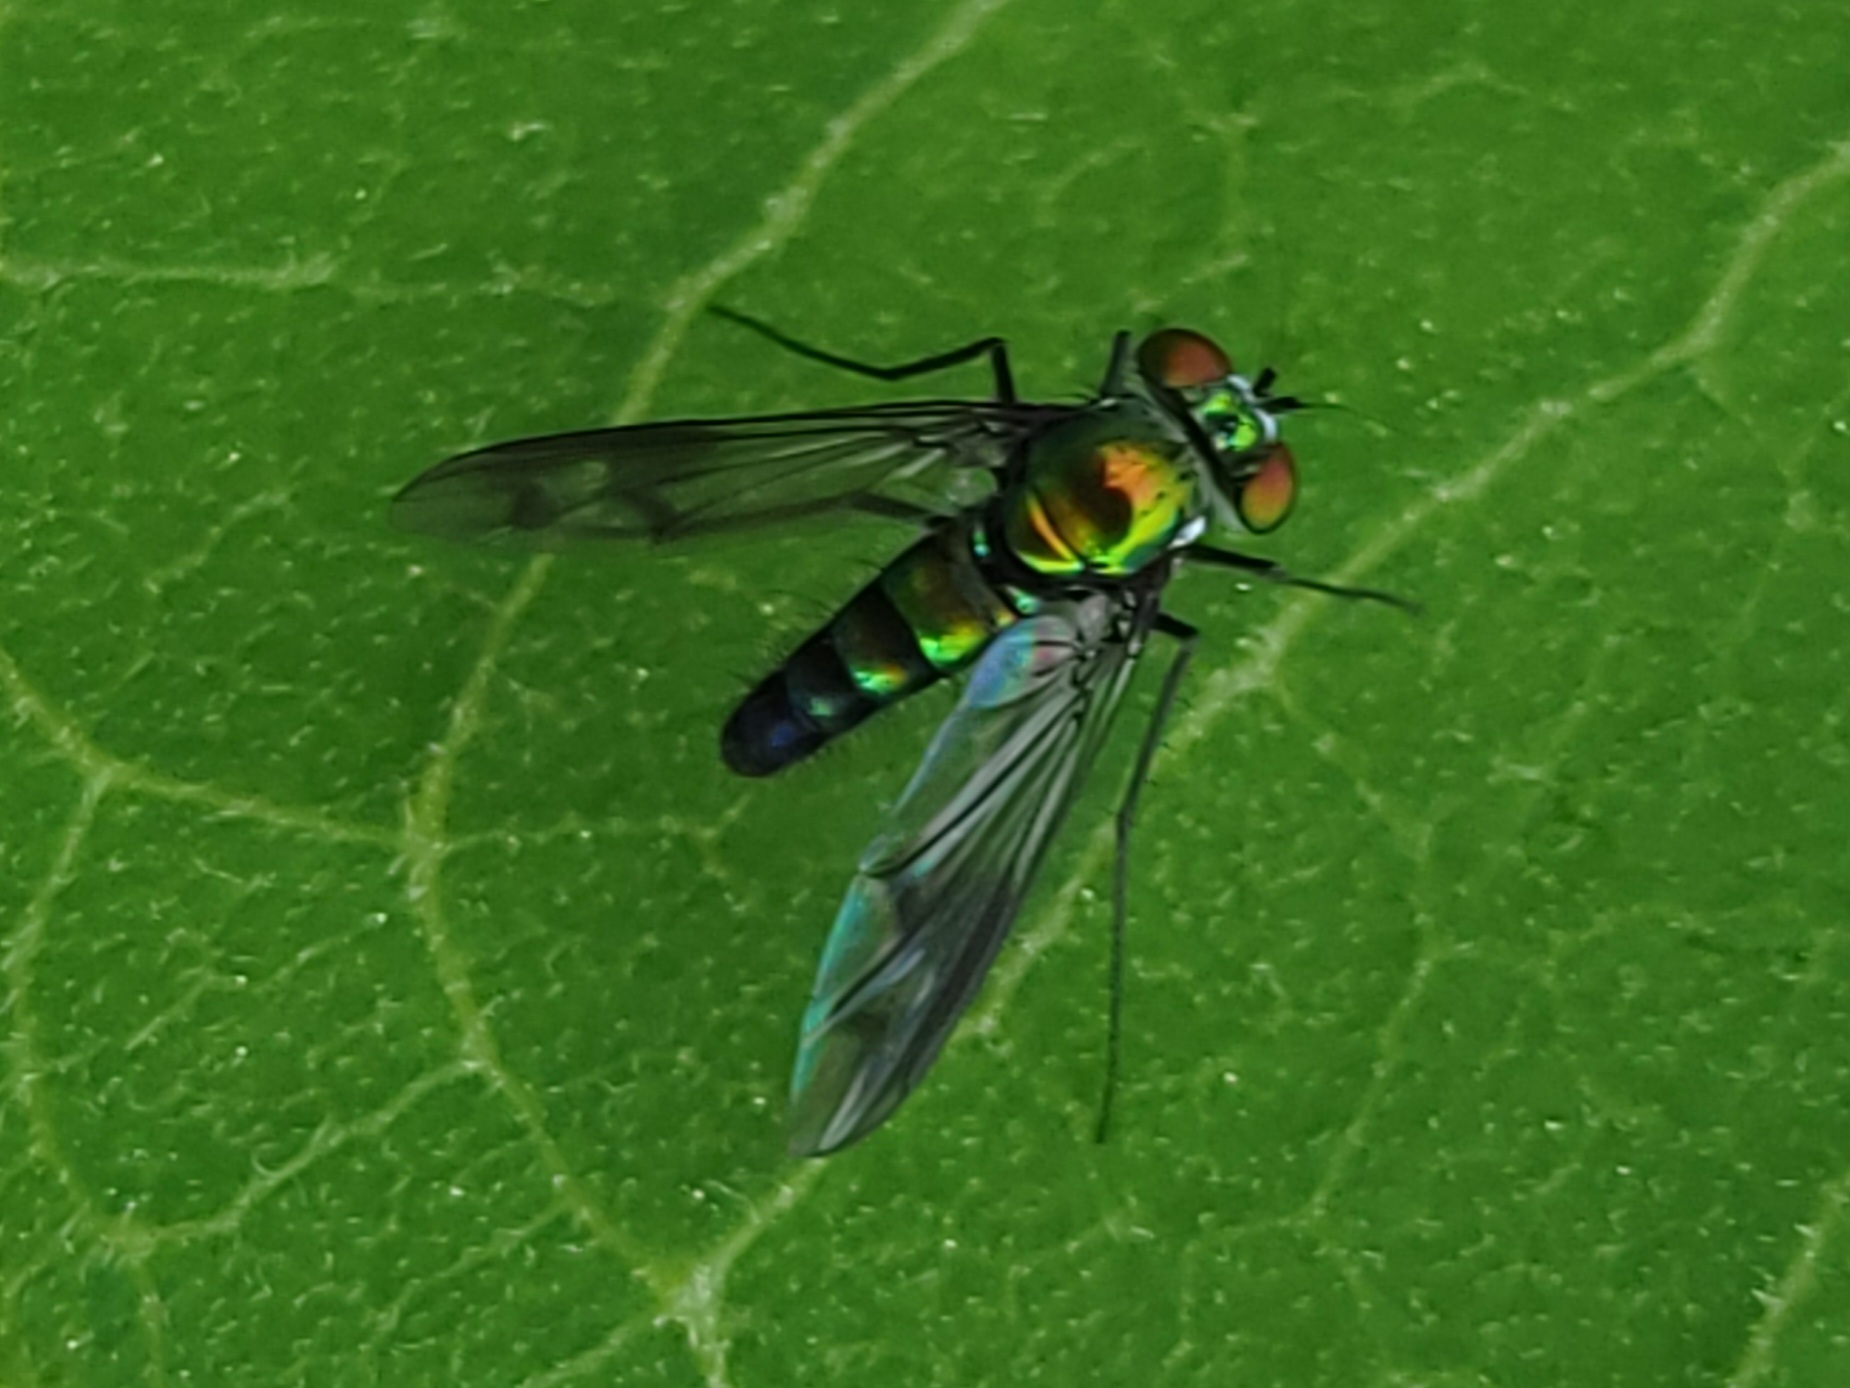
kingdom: Animalia
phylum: Arthropoda
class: Insecta
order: Diptera
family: Dolichopodidae
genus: Condylostylus
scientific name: Condylostylus patibulatus
